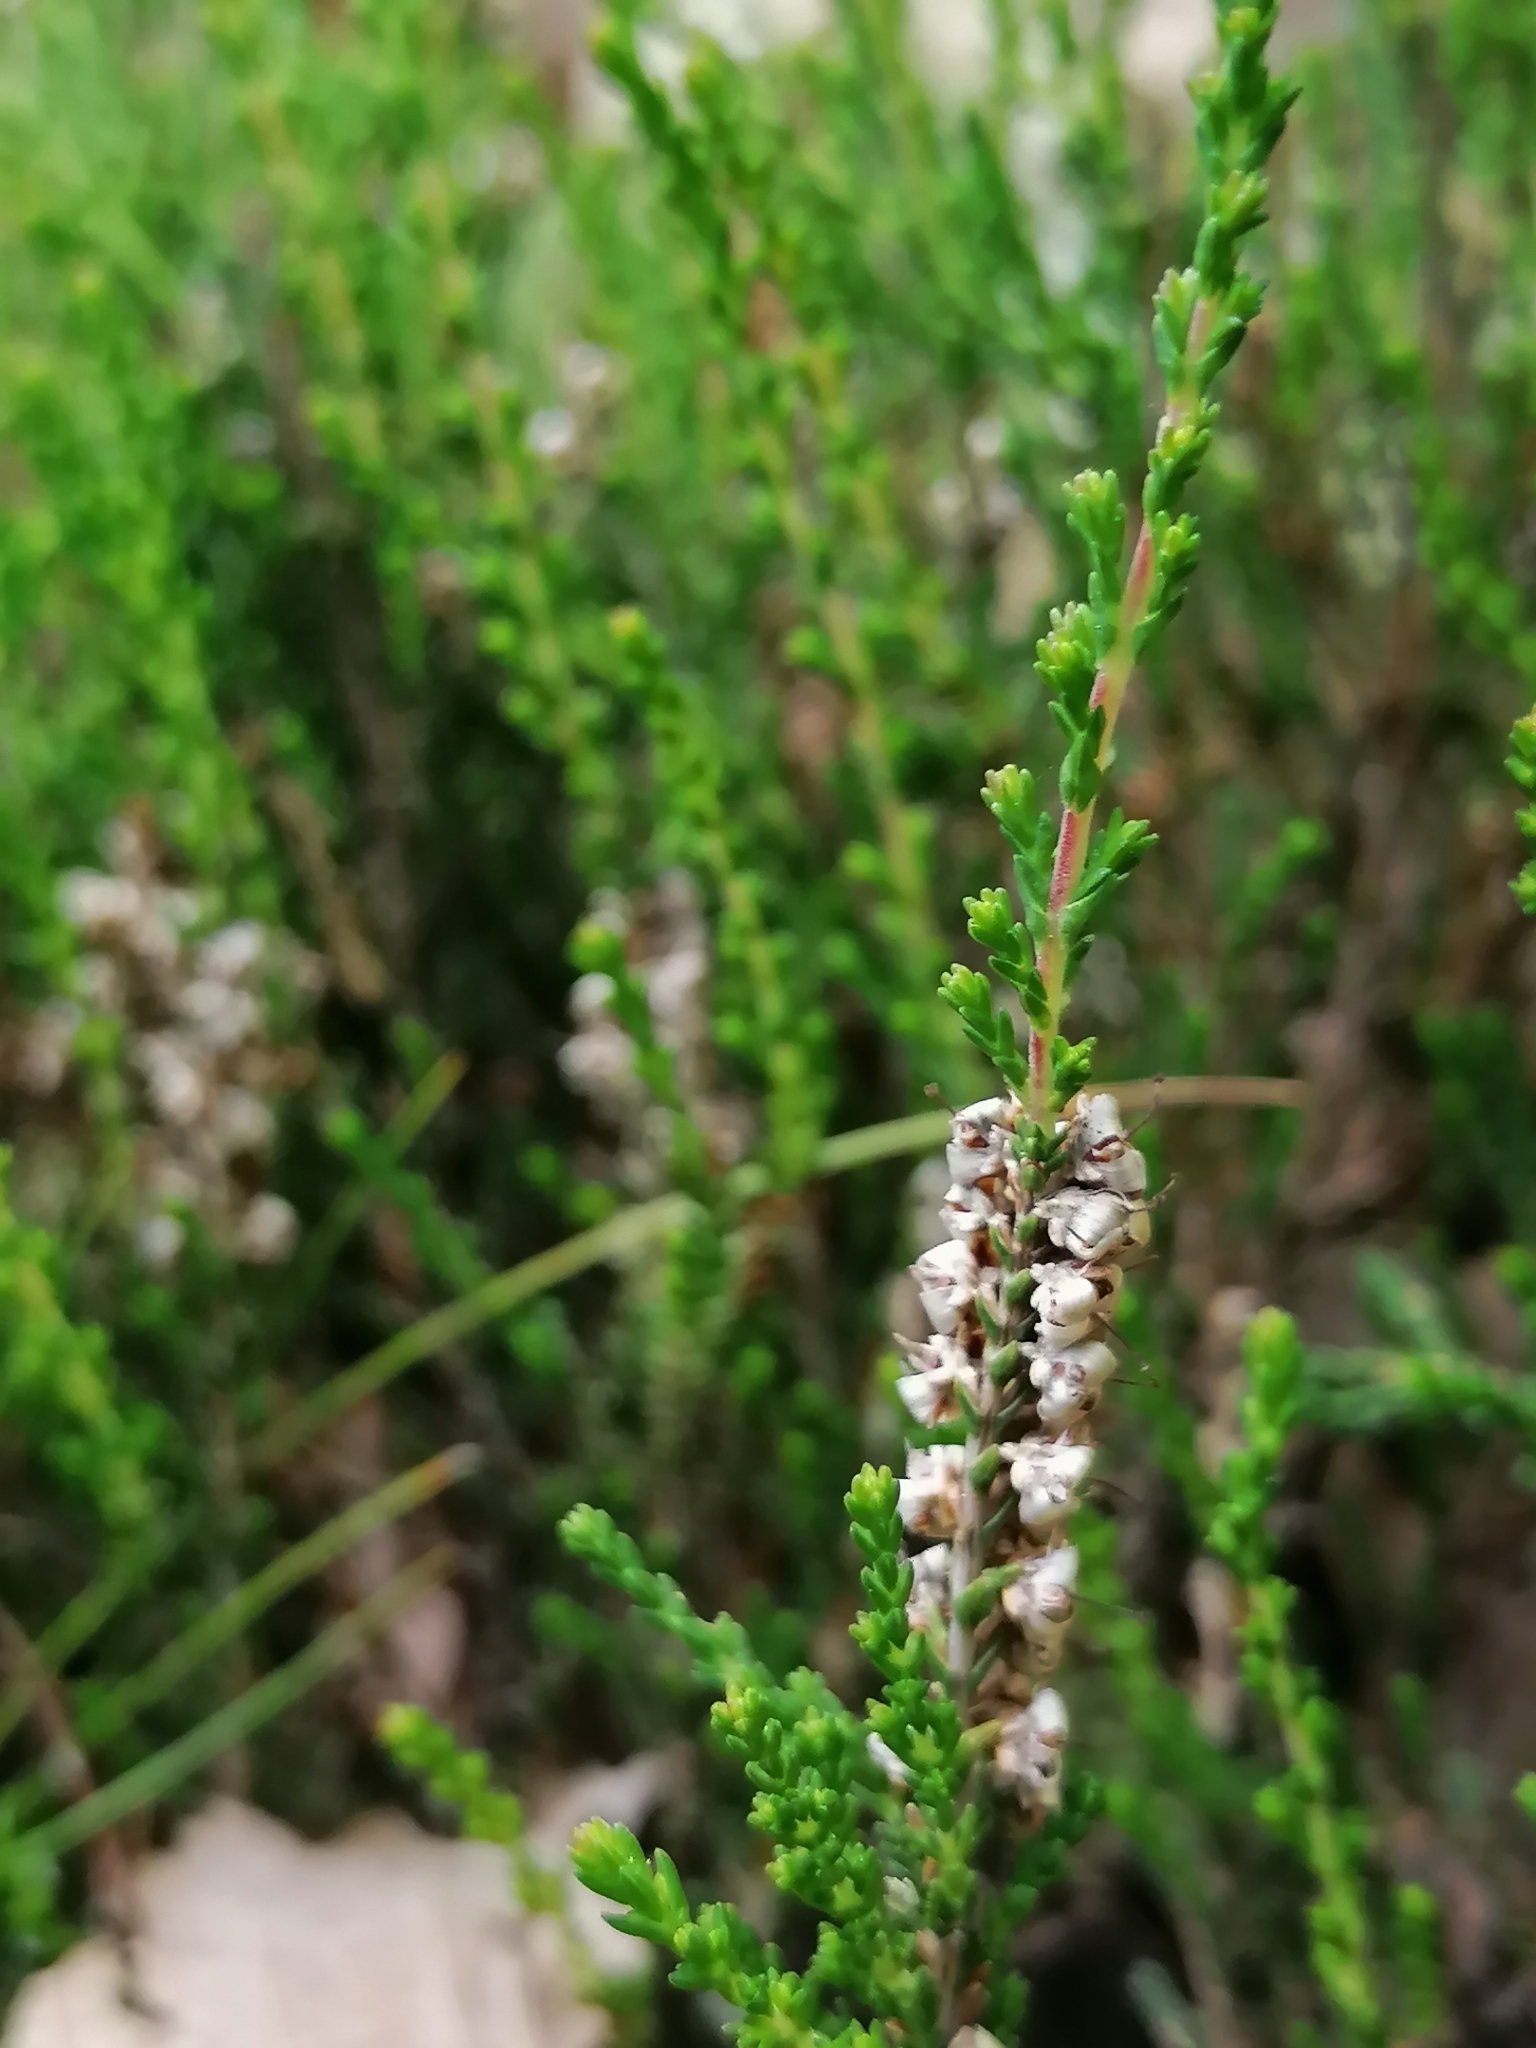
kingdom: Plantae
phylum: Tracheophyta
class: Magnoliopsida
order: Ericales
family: Ericaceae
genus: Calluna
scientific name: Calluna vulgaris
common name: Heather
